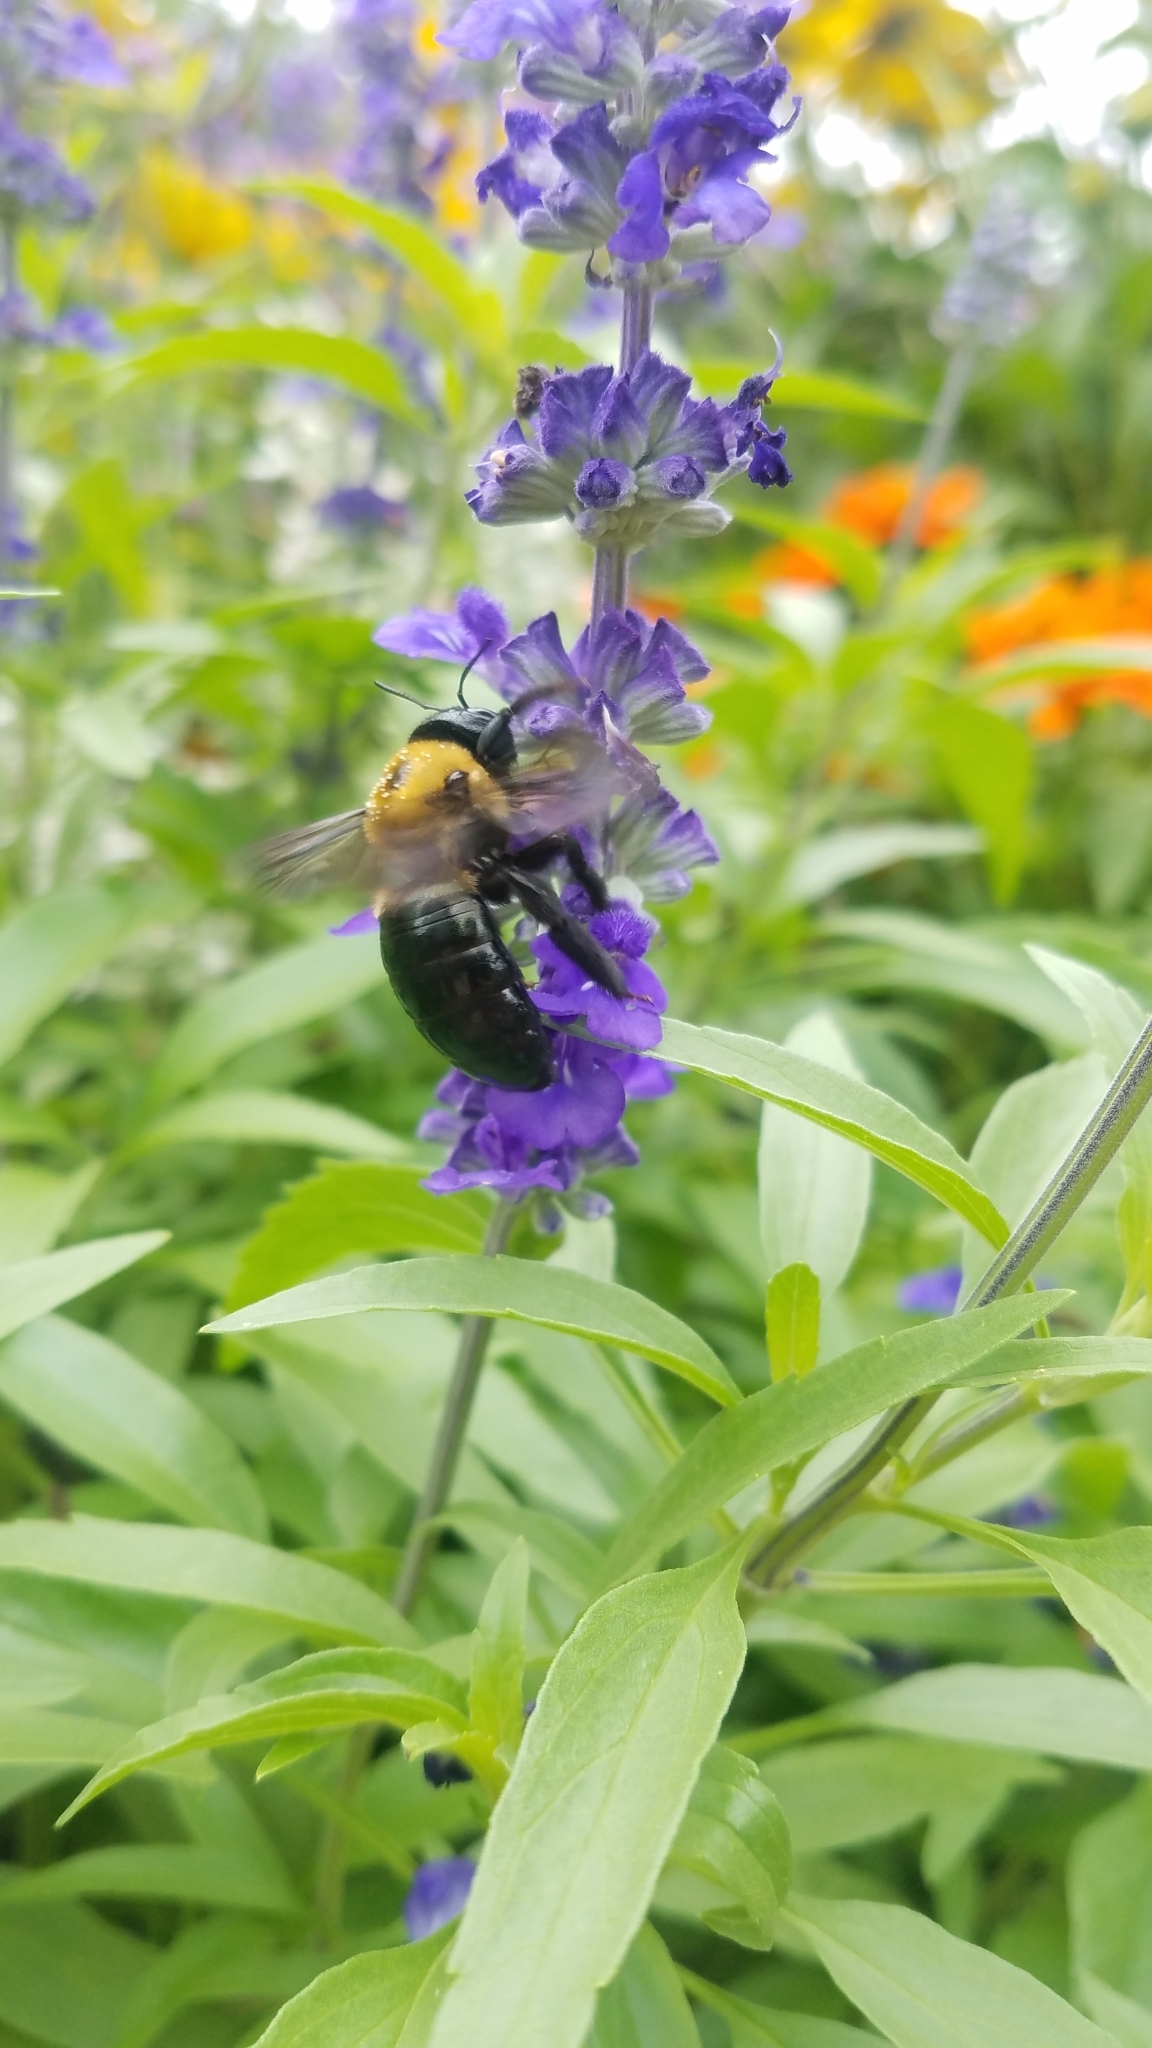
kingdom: Animalia
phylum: Arthropoda
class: Insecta
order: Hymenoptera
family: Apidae
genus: Xylocopa
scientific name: Xylocopa virginica
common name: Carpenter bee
